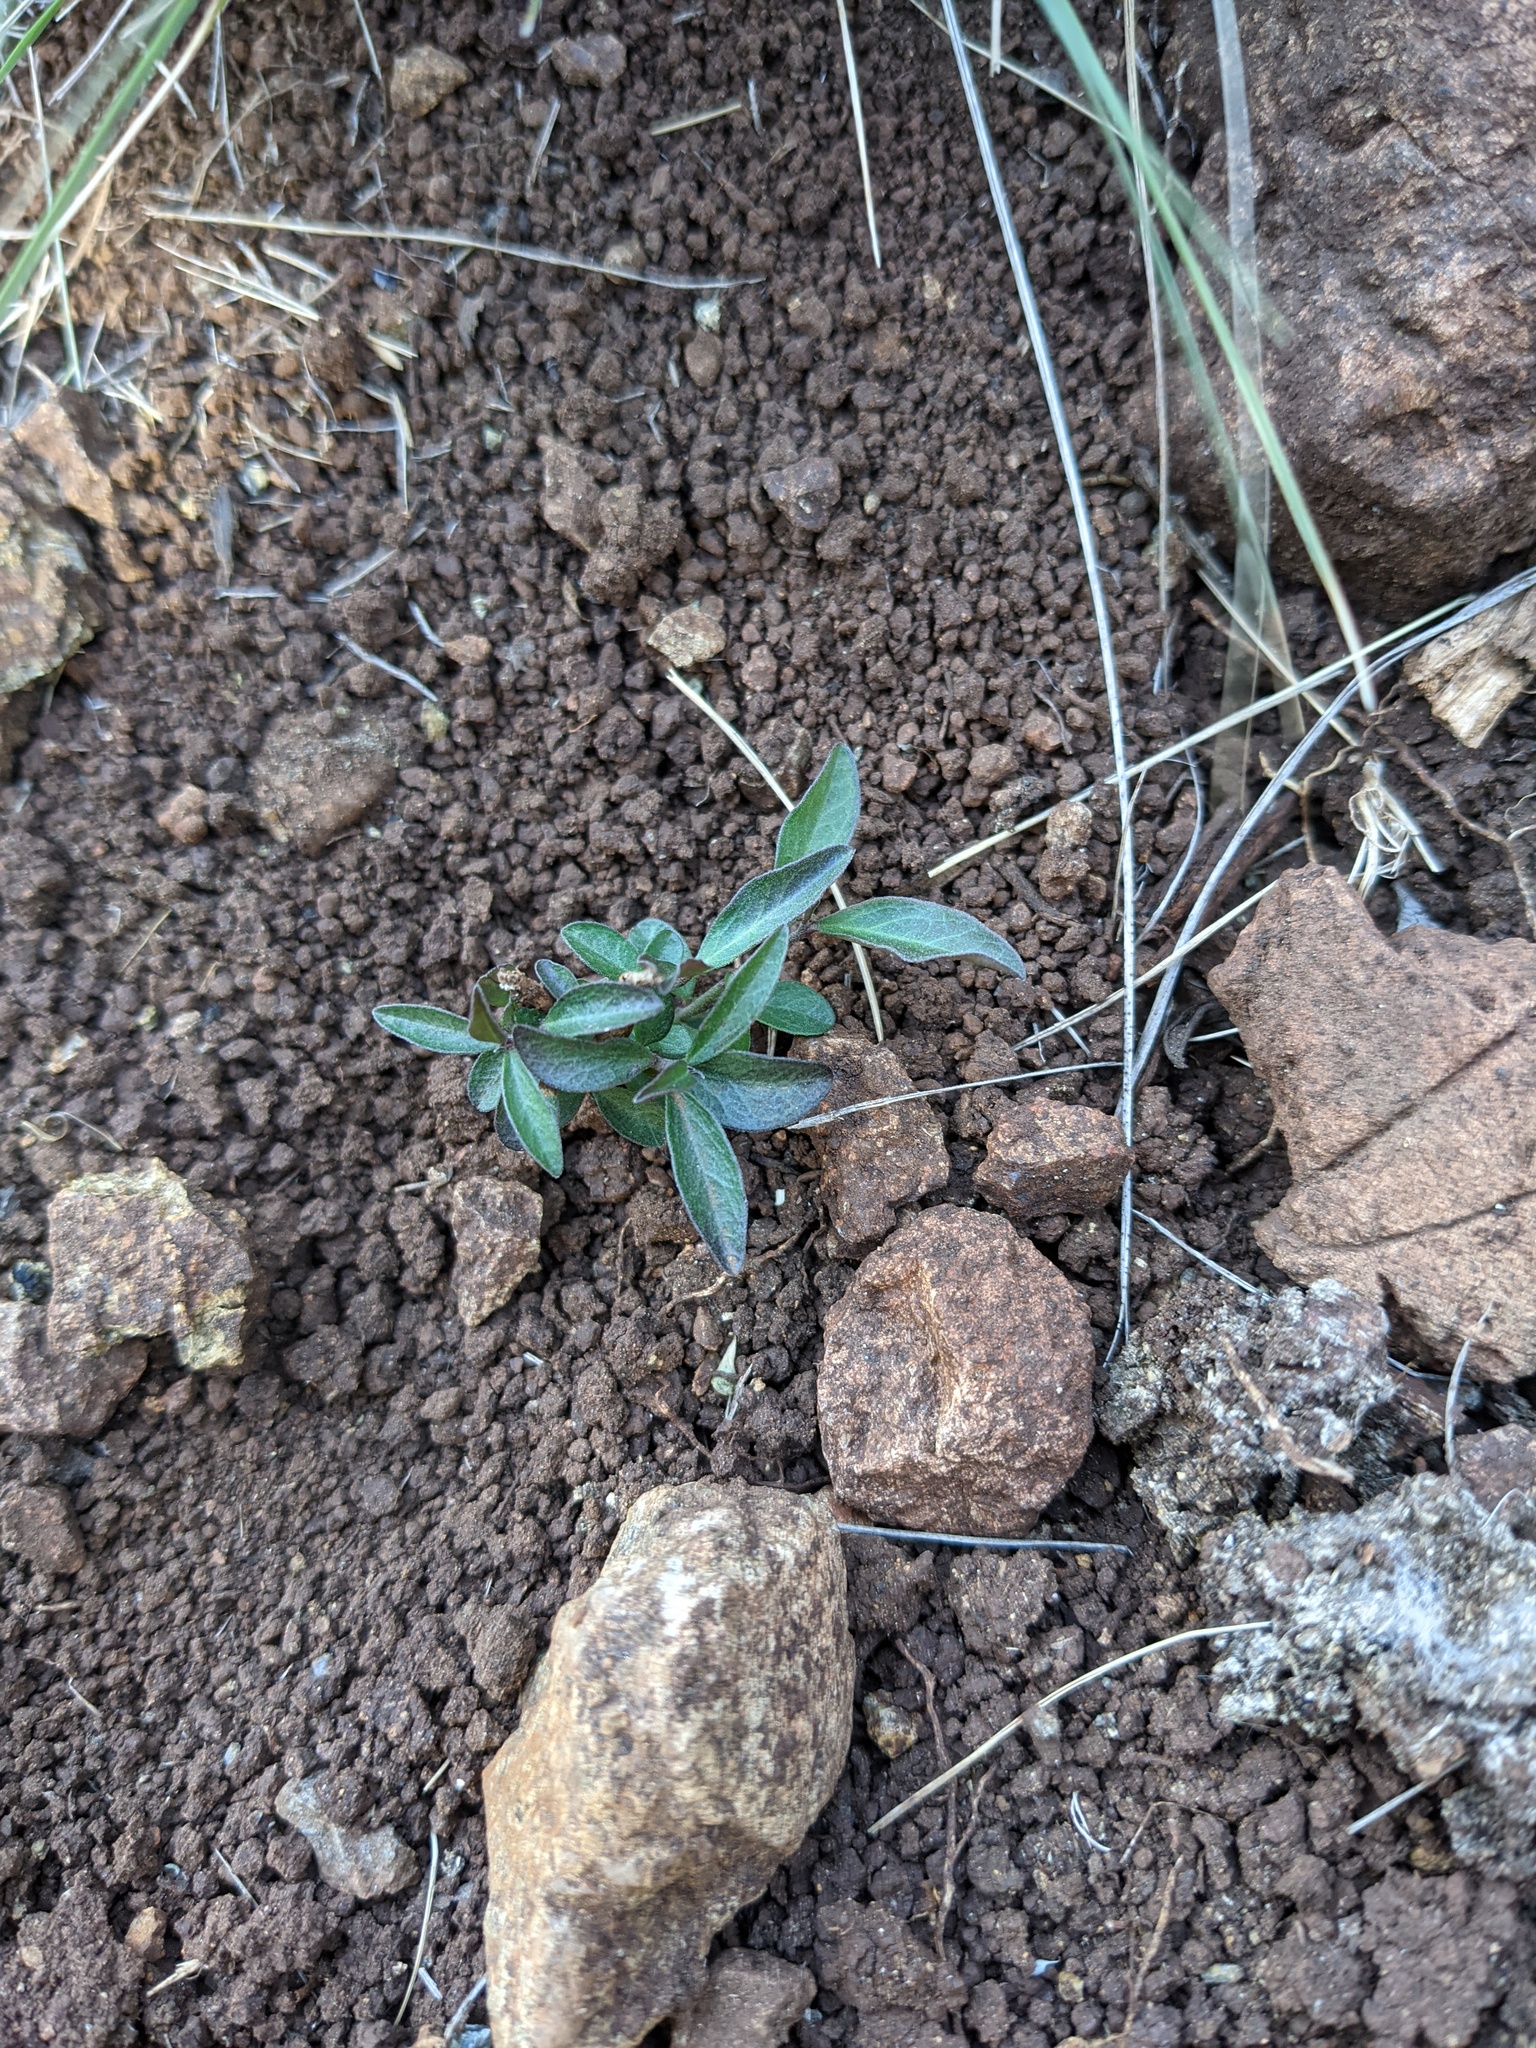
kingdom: Plantae
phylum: Tracheophyta
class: Magnoliopsida
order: Fabales
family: Polygalaceae
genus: Rhinotropis
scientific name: Rhinotropis californica
